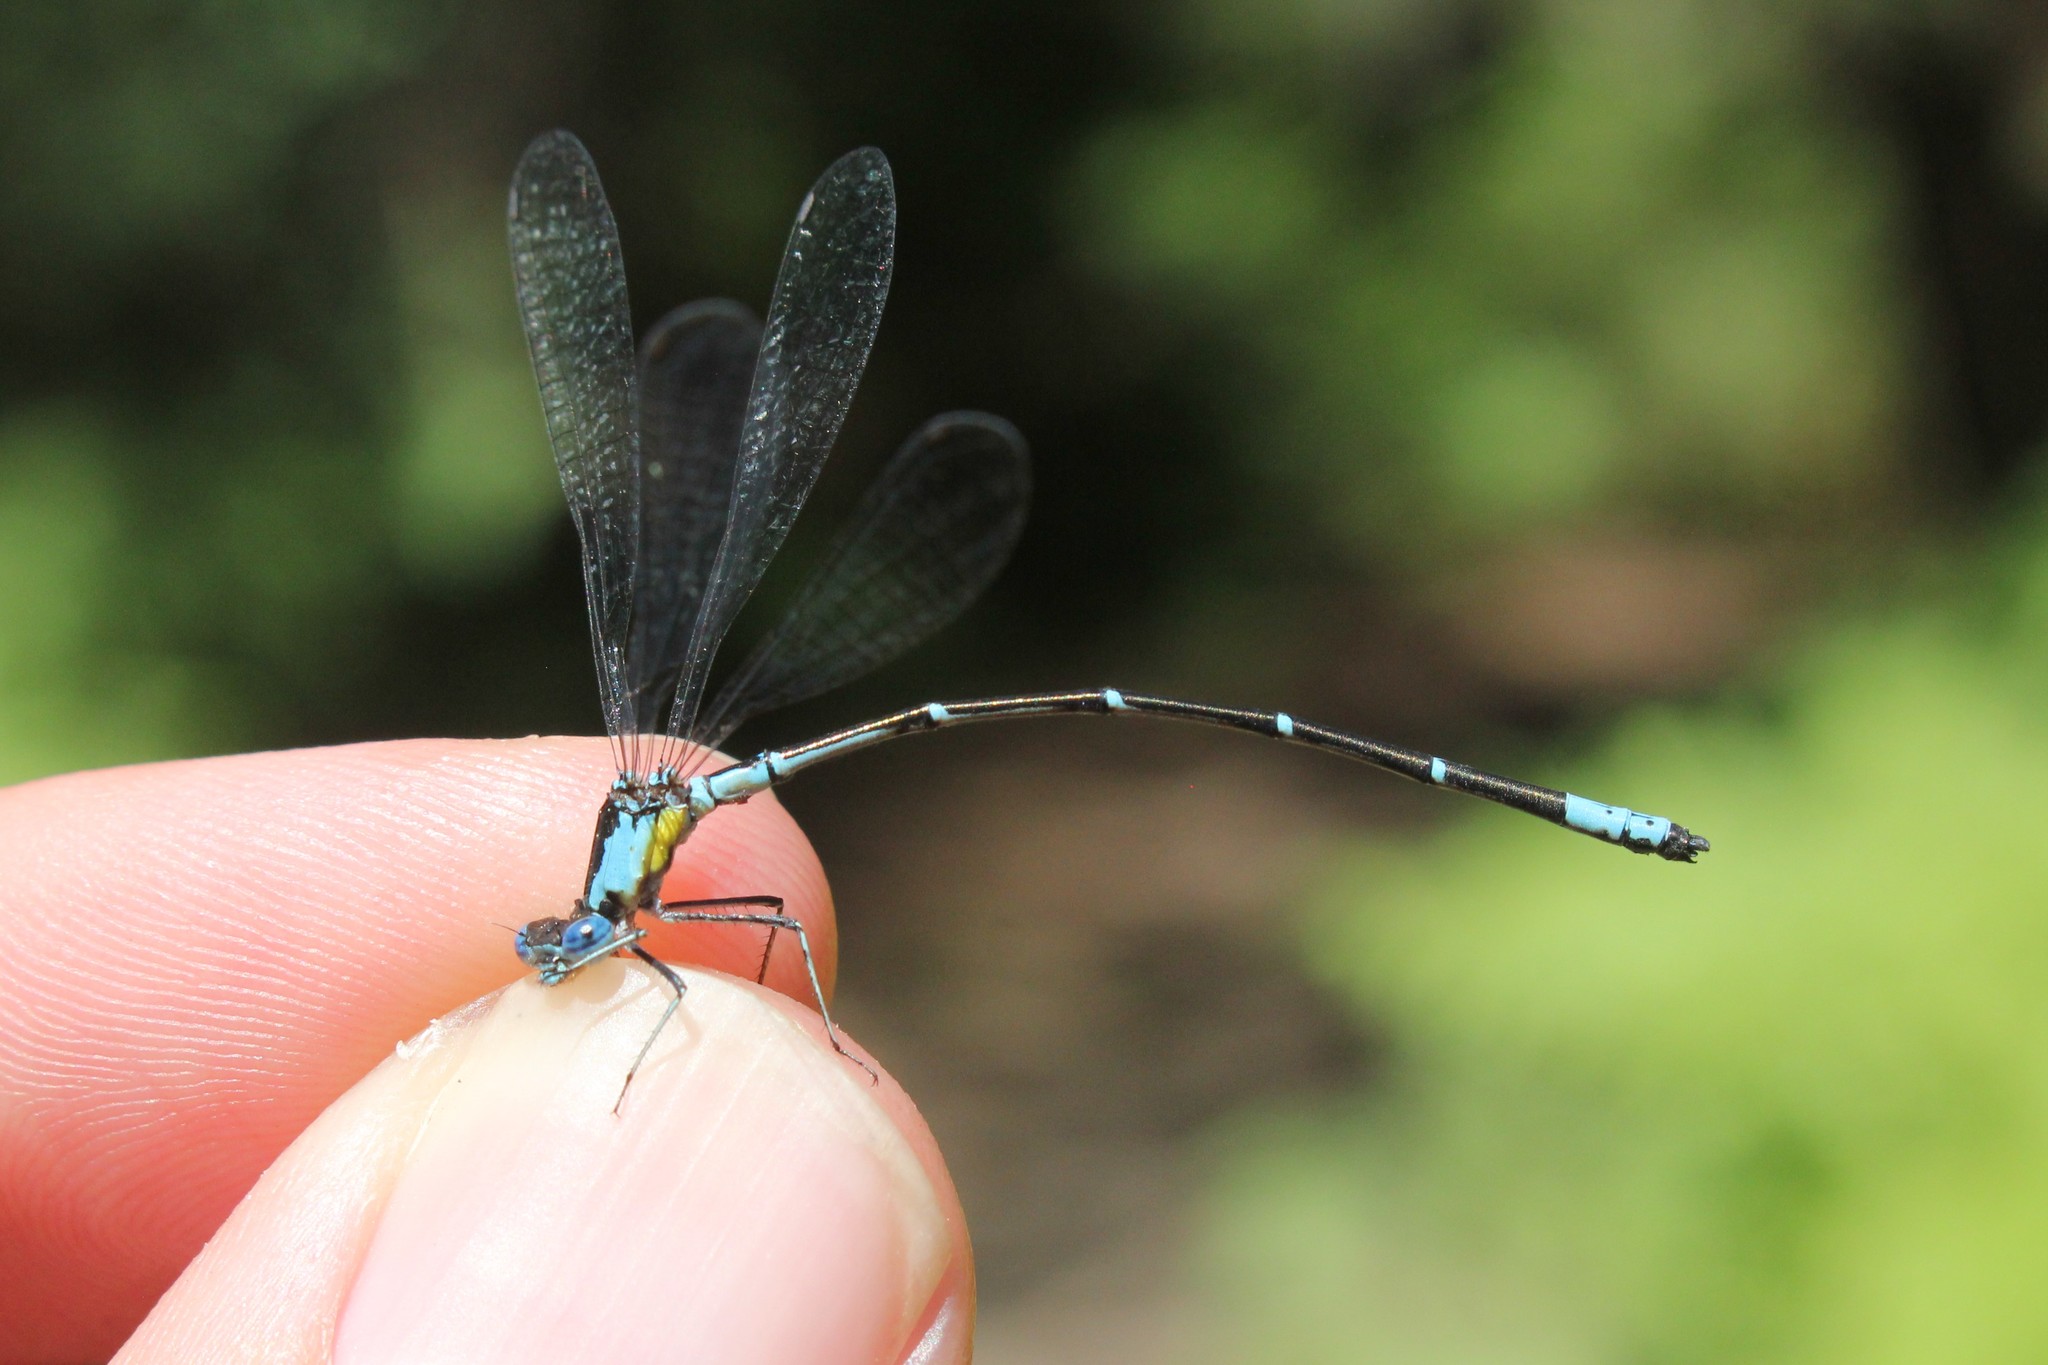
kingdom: Animalia
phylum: Arthropoda
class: Insecta
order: Odonata
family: Coenagrionidae
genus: Chromagrion
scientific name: Chromagrion conditum
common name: Aurora damsel
